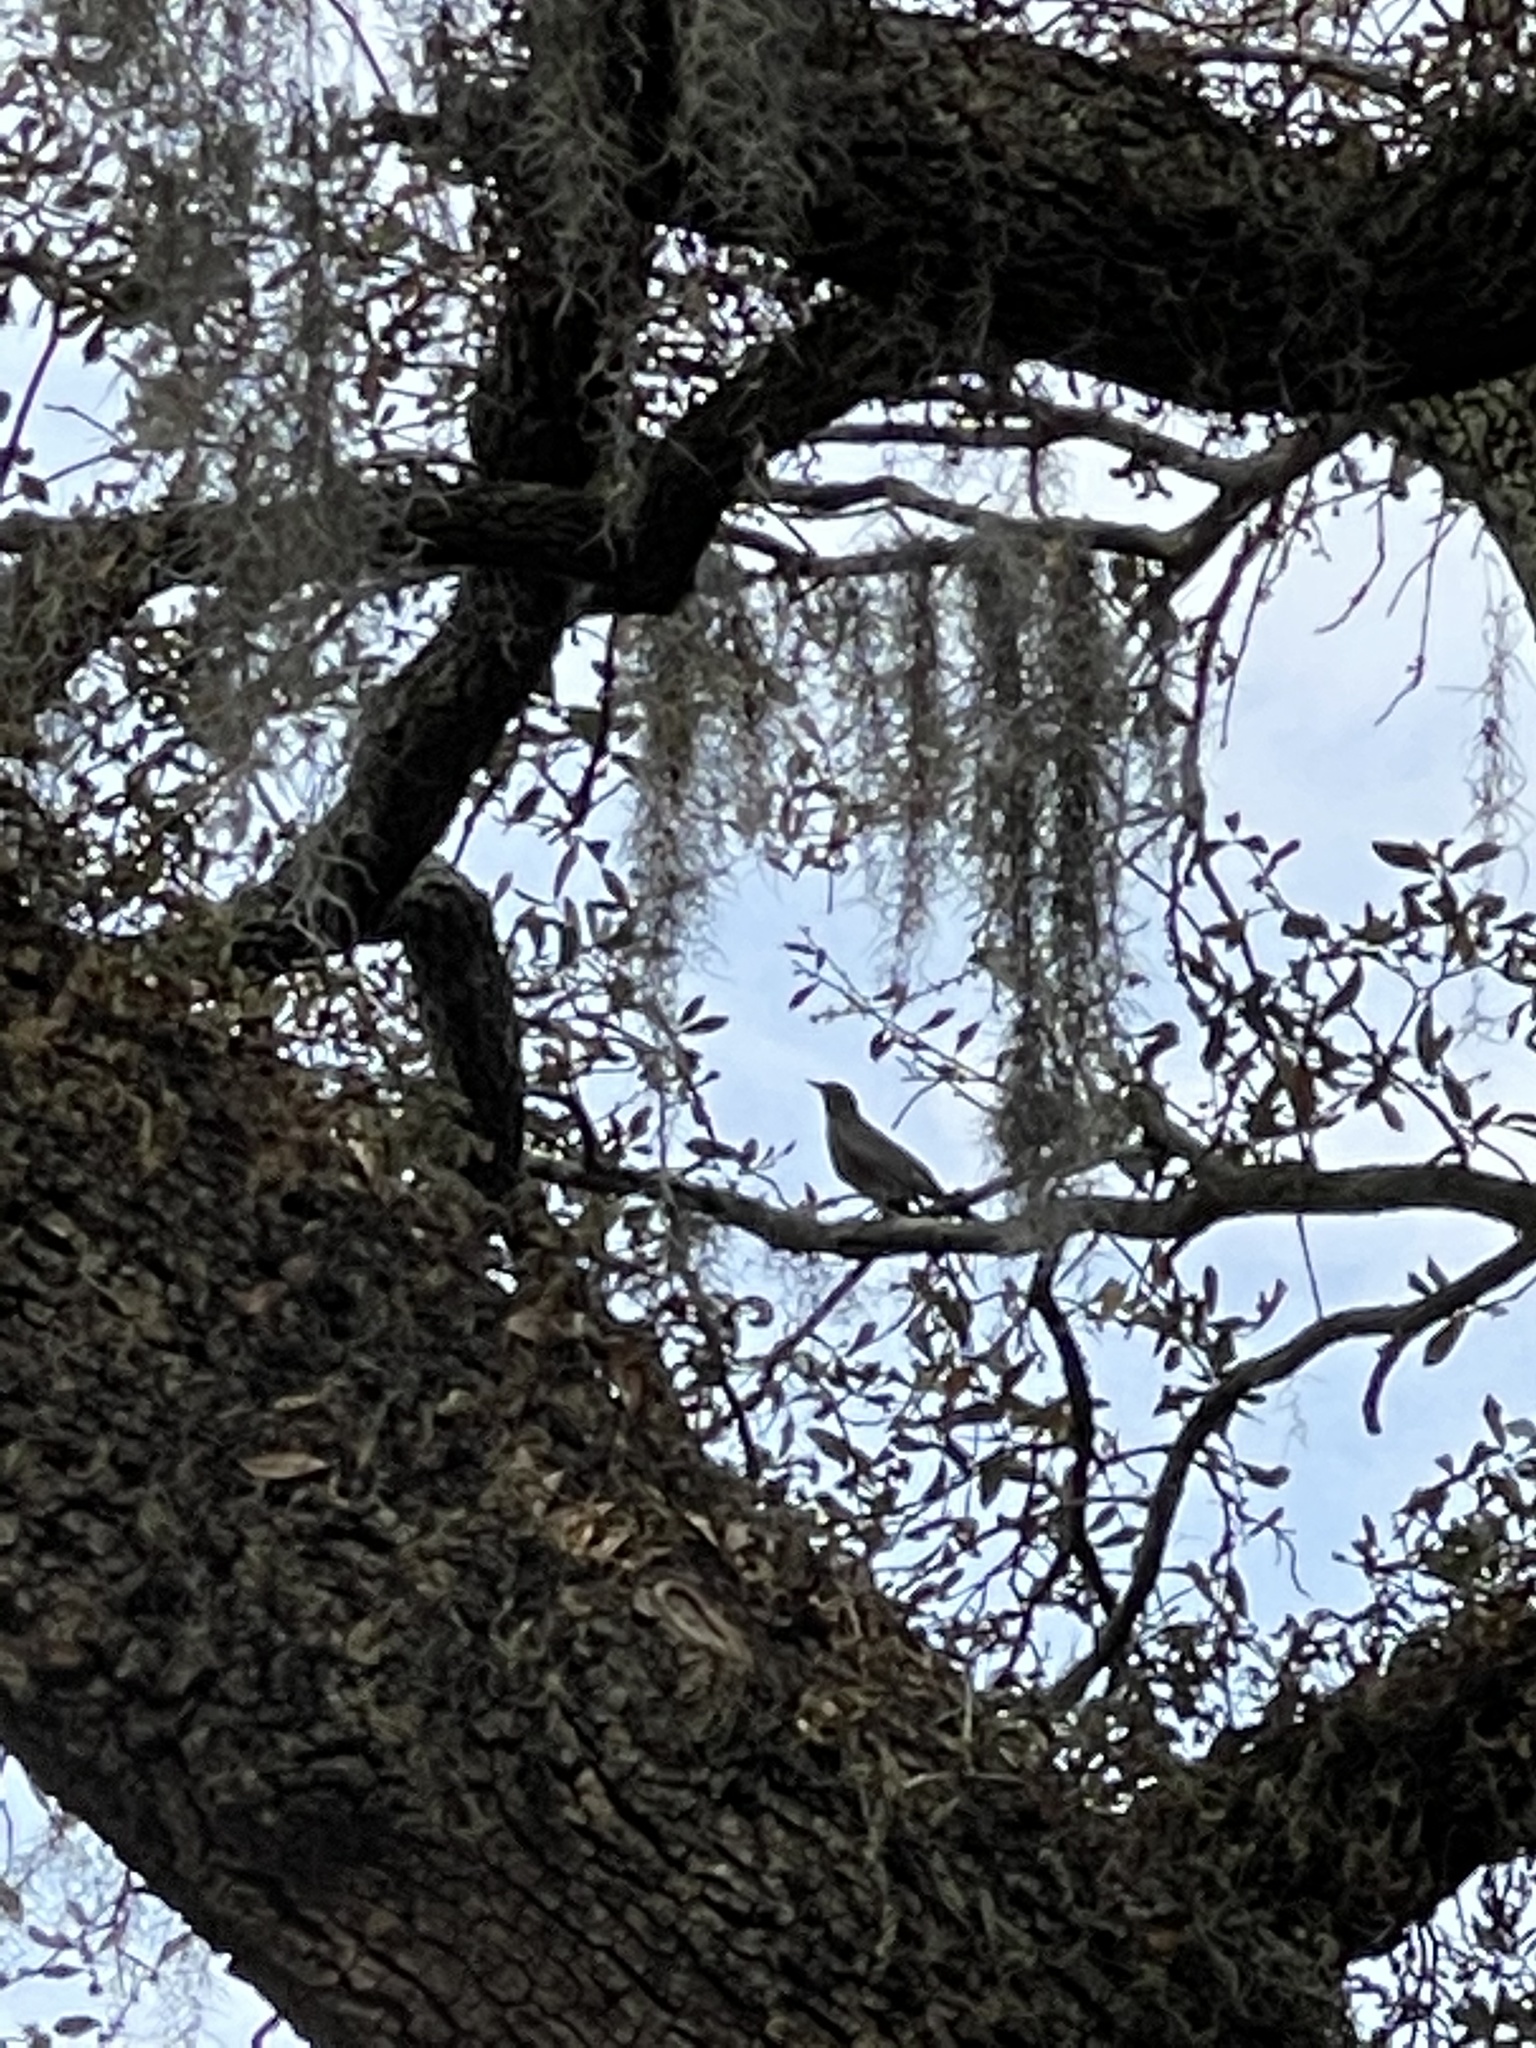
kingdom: Animalia
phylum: Chordata
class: Aves
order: Passeriformes
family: Turdidae
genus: Turdus
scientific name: Turdus migratorius
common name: American robin
